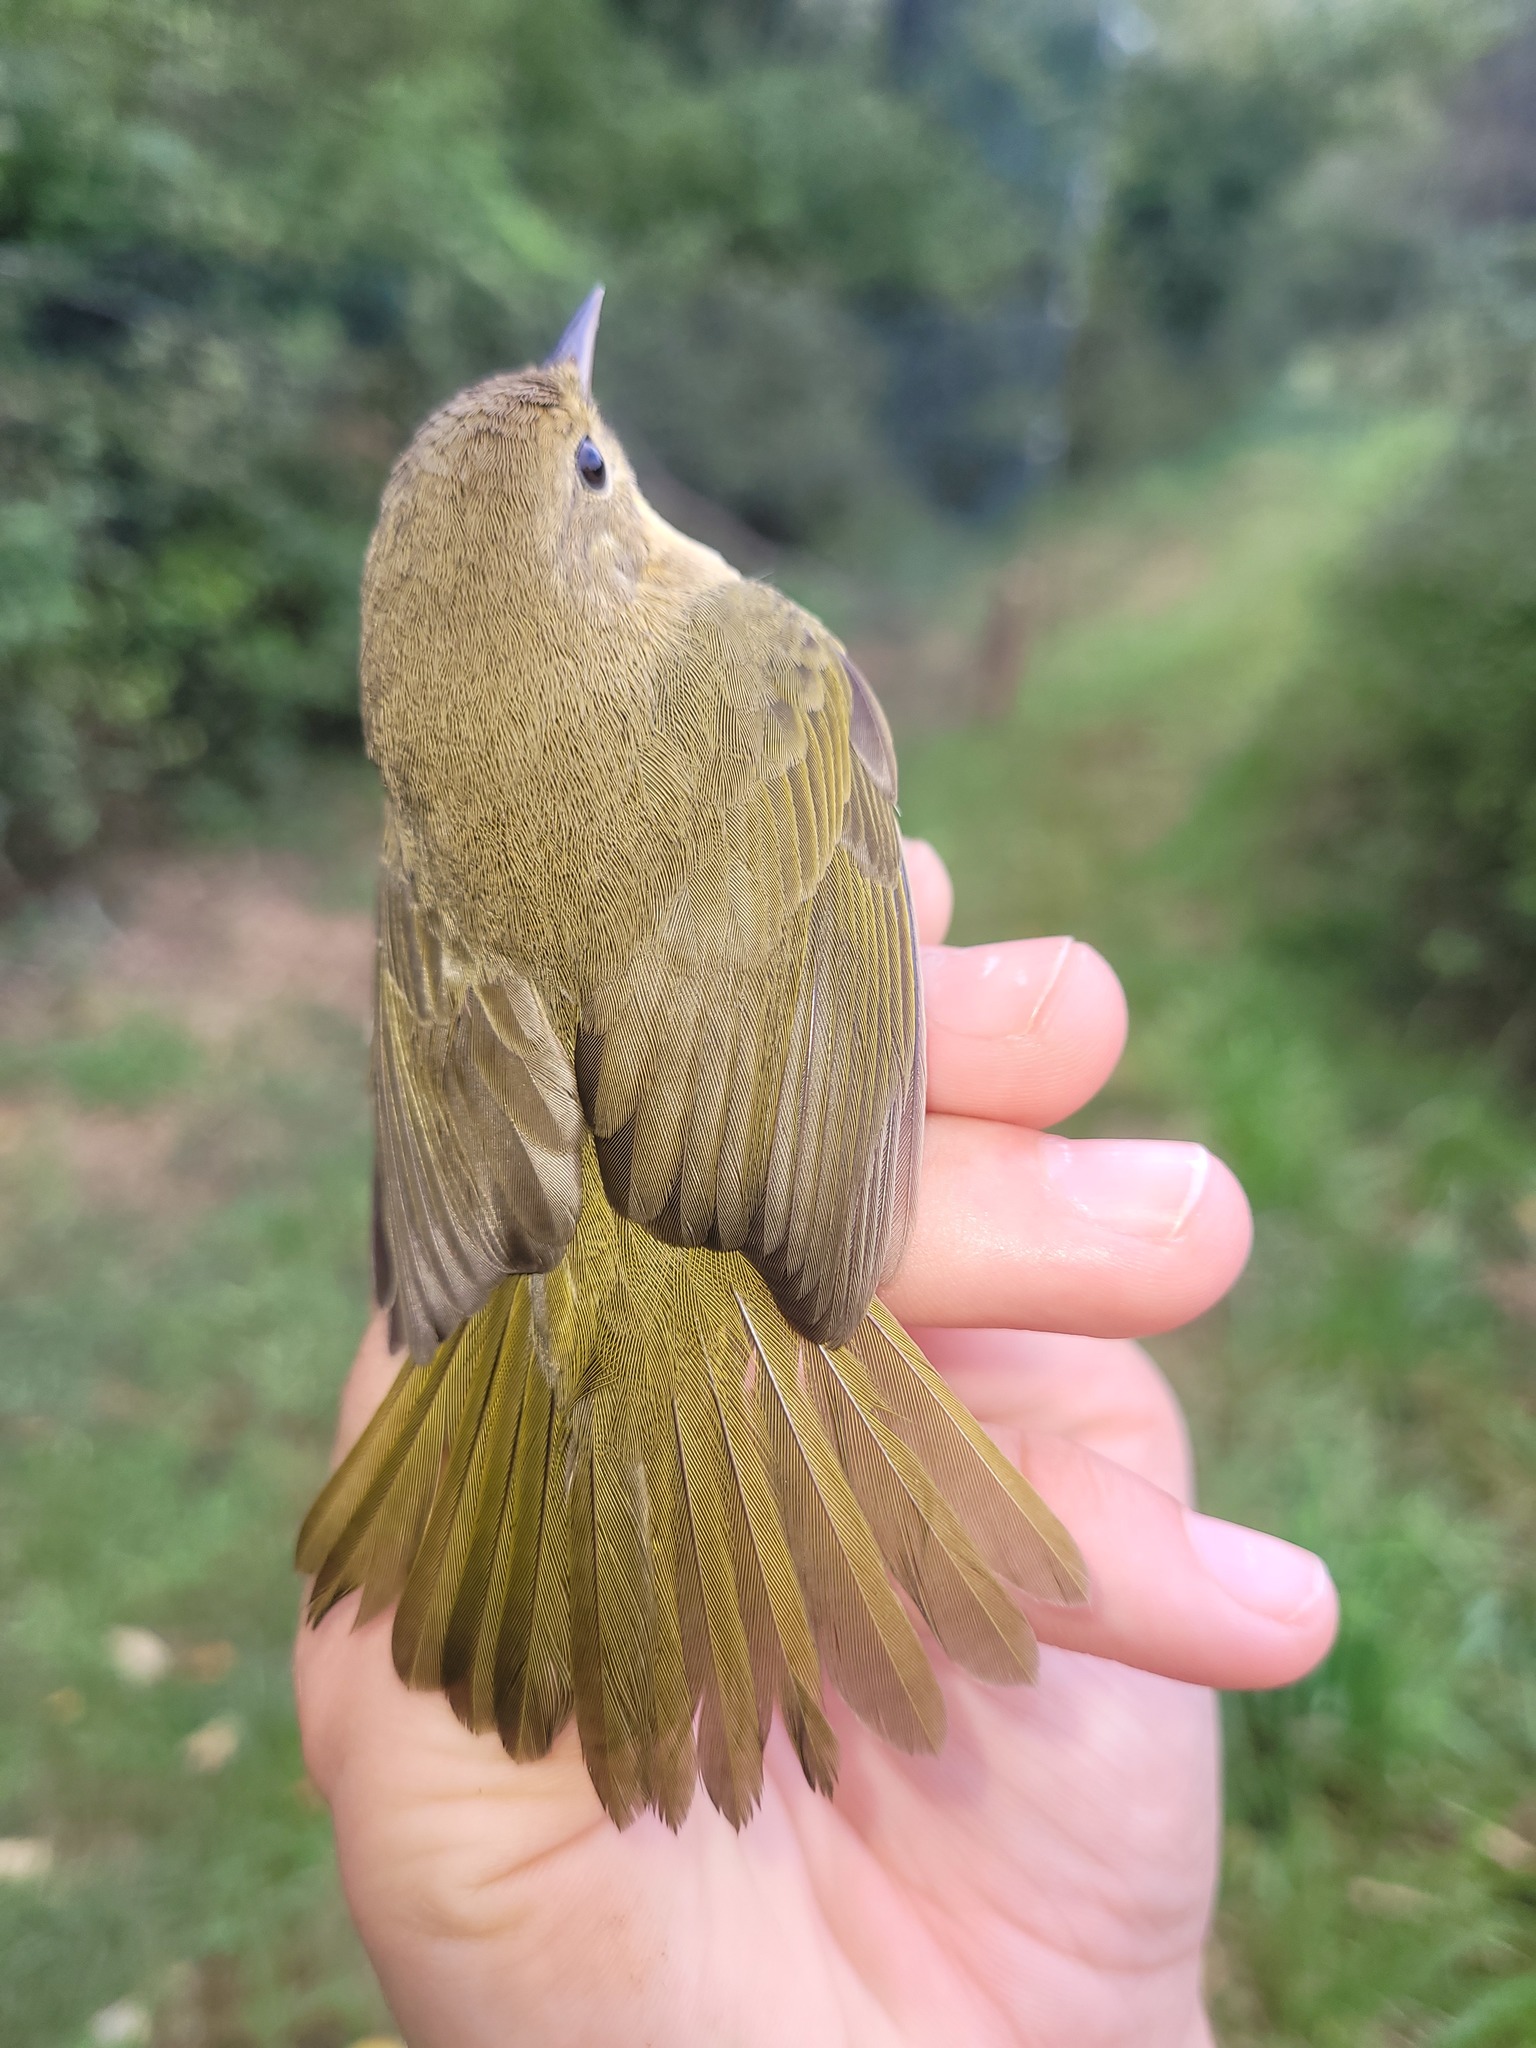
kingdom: Animalia
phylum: Chordata
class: Aves
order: Passeriformes
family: Parulidae
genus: Geothlypis
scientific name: Geothlypis trichas
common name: Common yellowthroat
